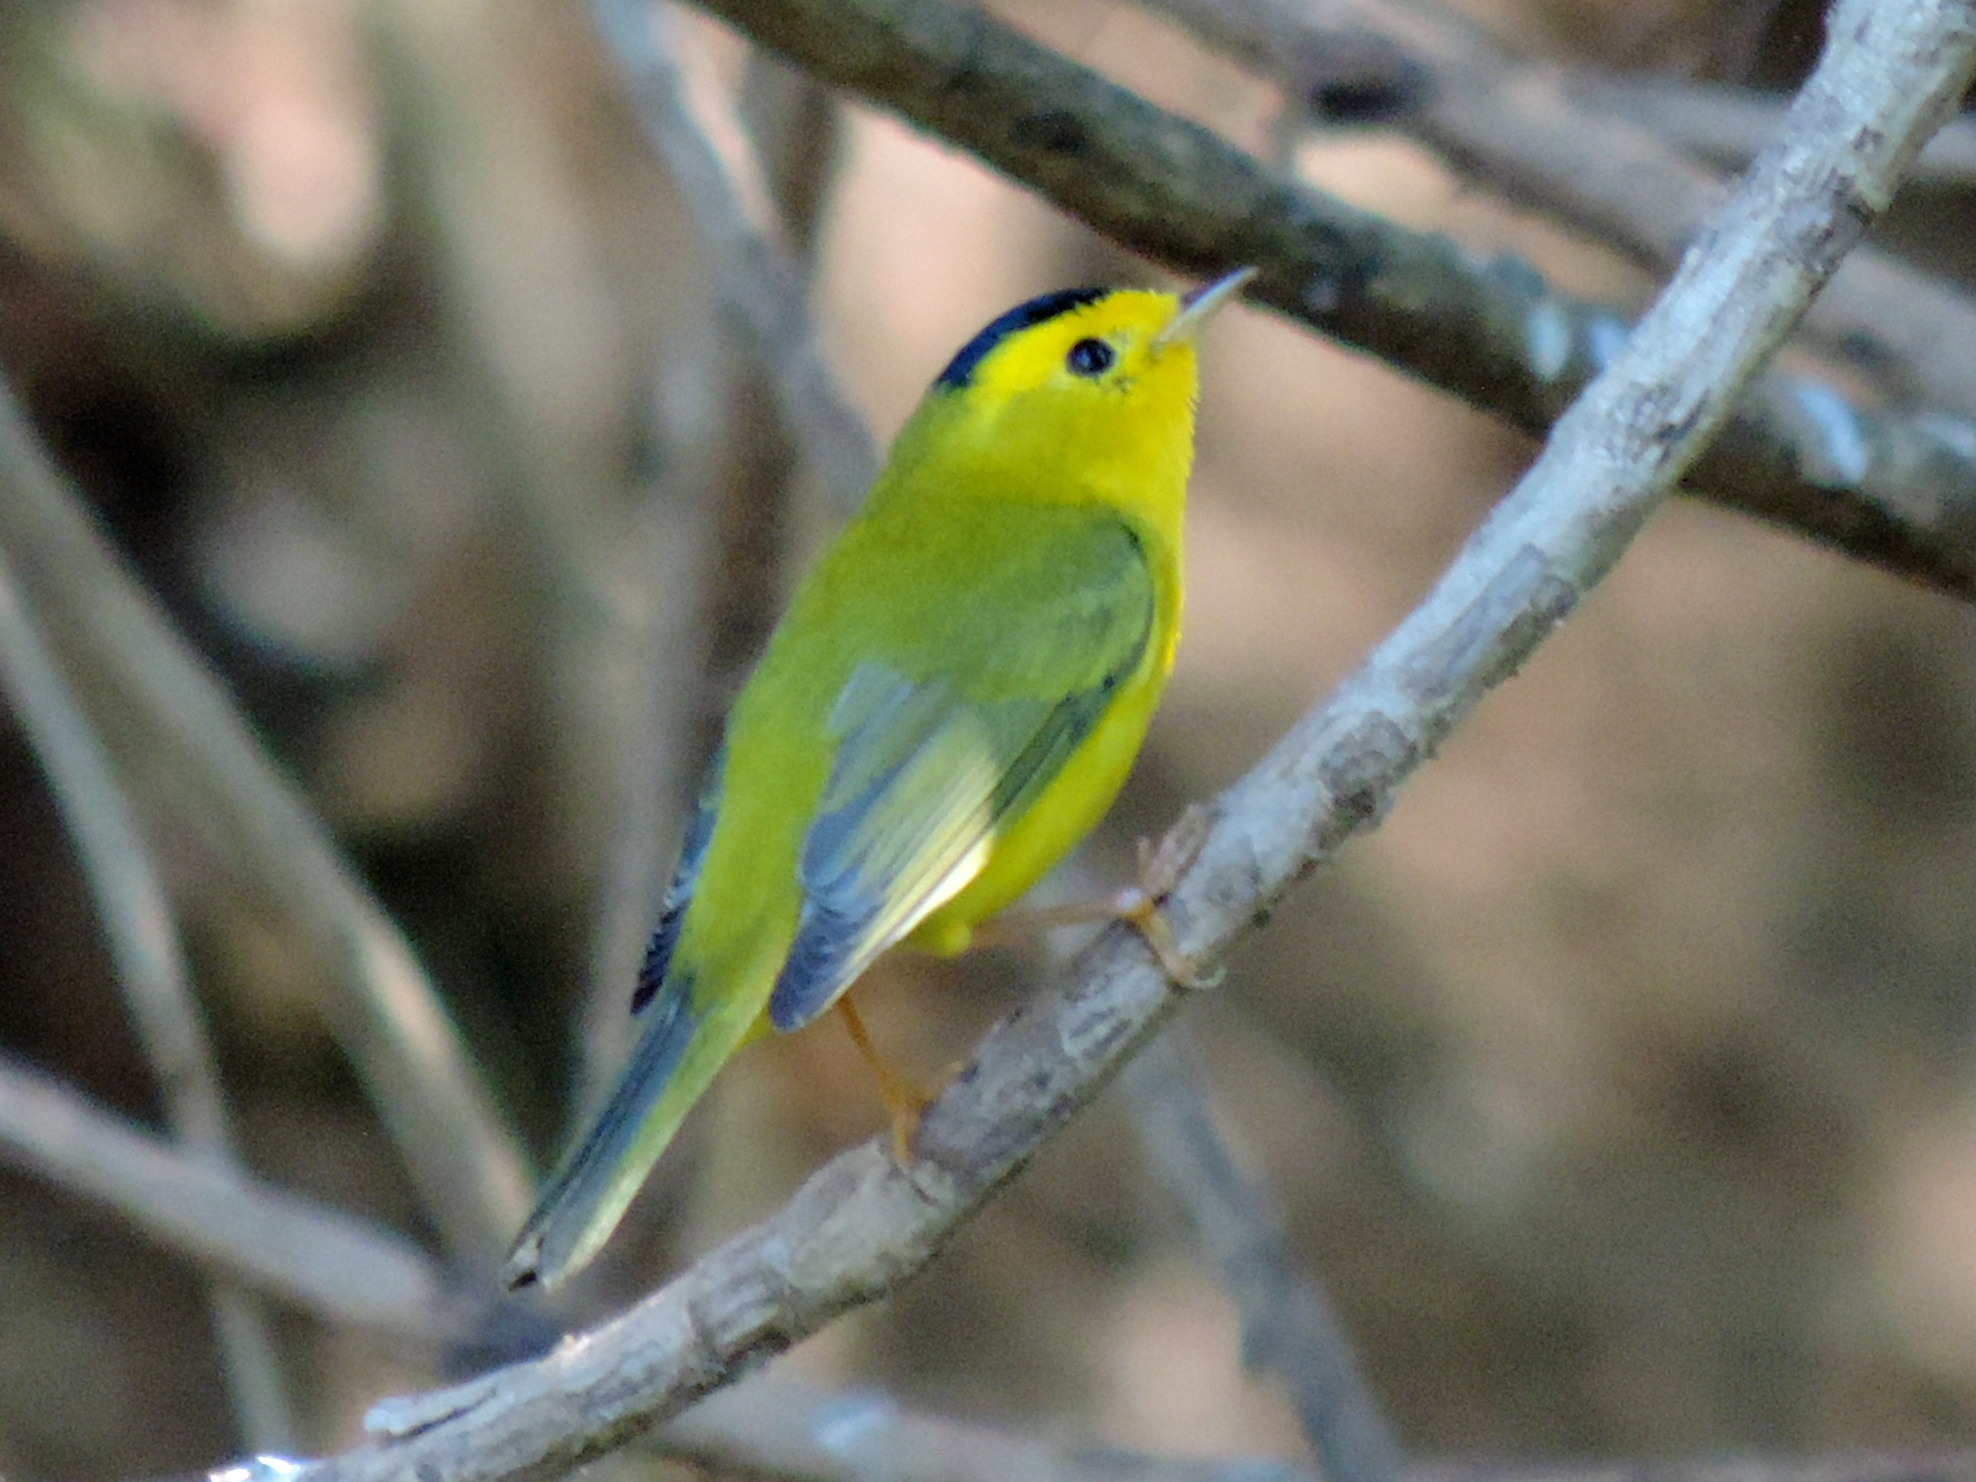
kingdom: Animalia
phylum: Chordata
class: Aves
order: Passeriformes
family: Parulidae
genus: Cardellina
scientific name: Cardellina pusilla
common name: Wilson's warbler
